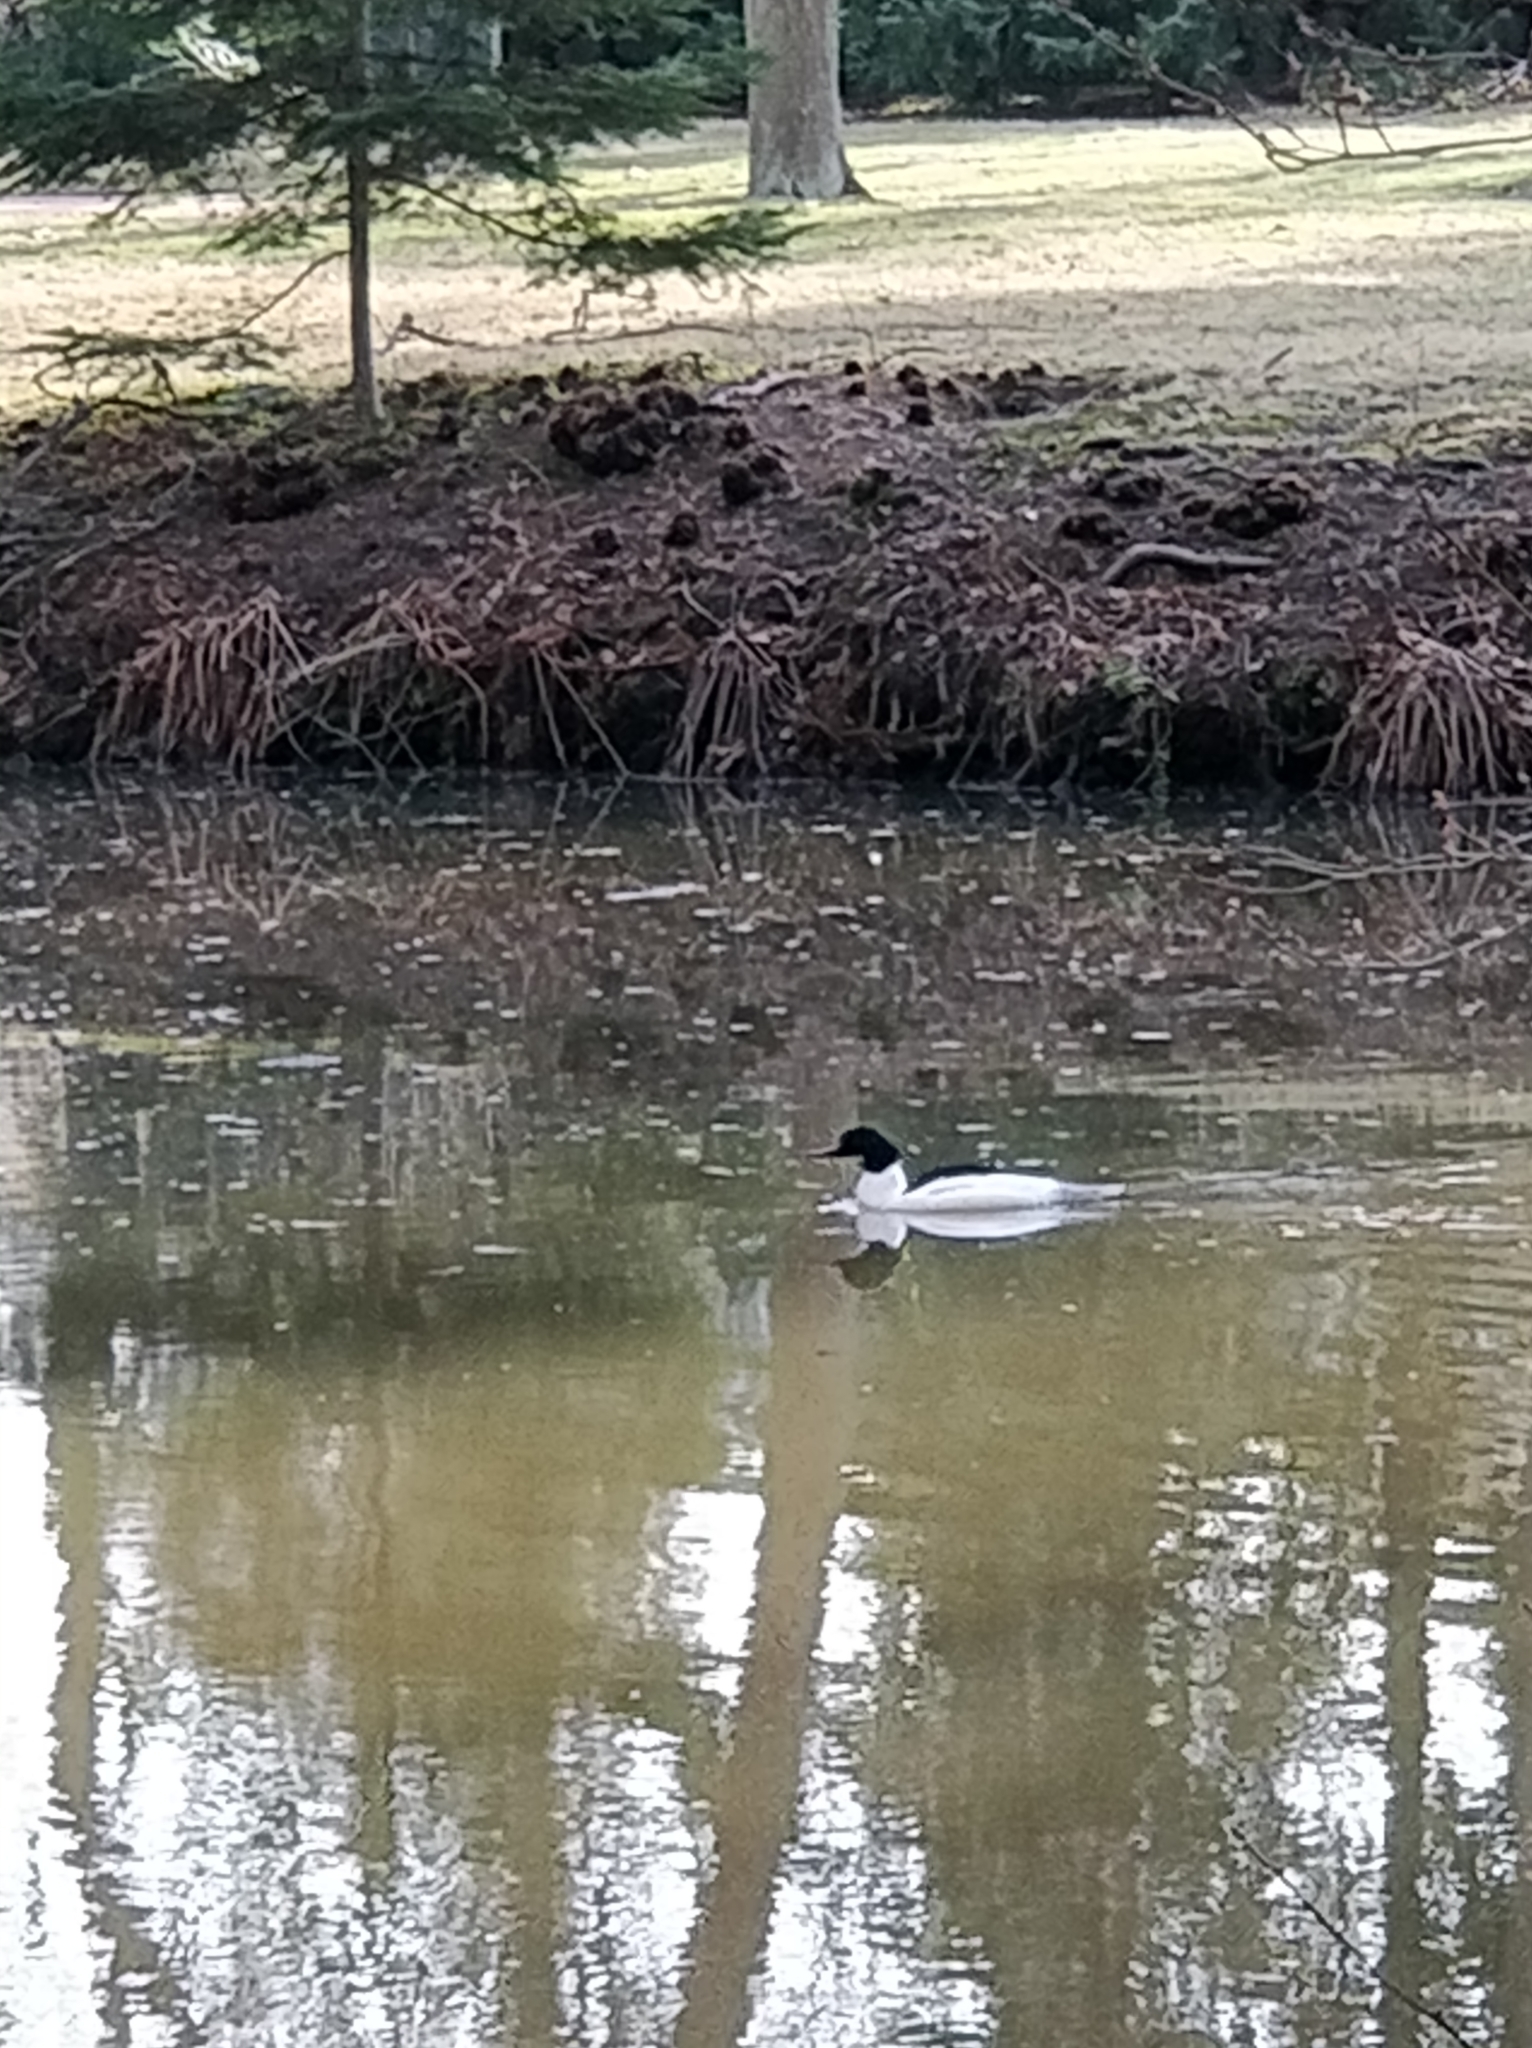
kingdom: Animalia
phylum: Chordata
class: Aves
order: Anseriformes
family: Anatidae
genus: Mergus
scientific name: Mergus merganser
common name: Common merganser
